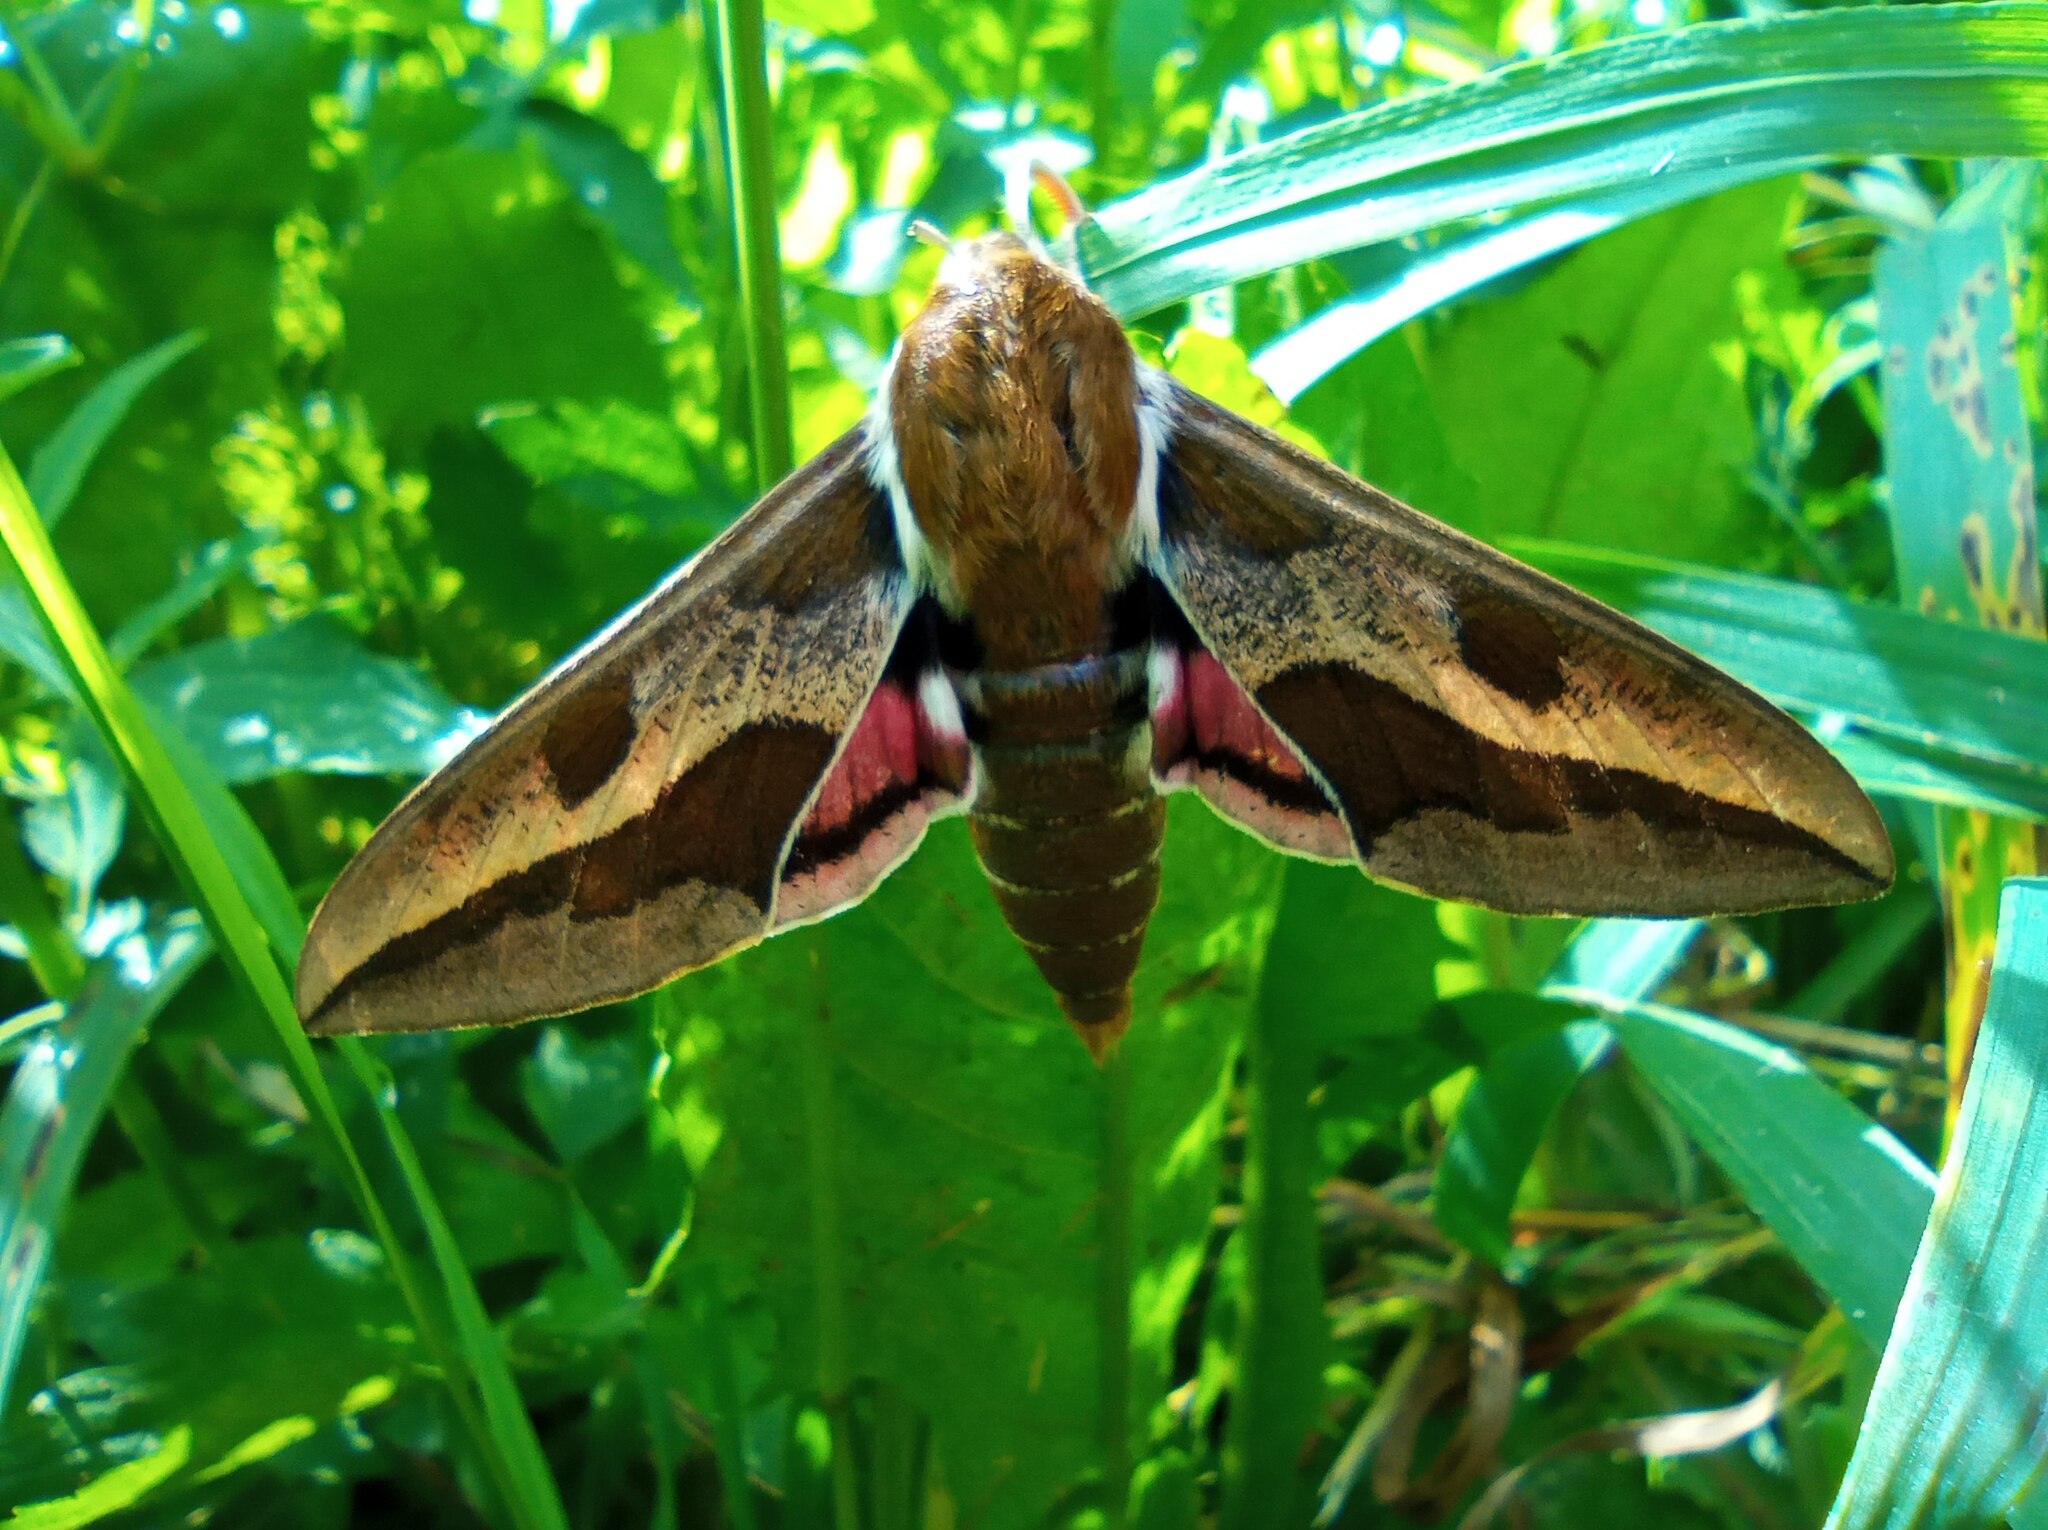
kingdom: Animalia
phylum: Arthropoda
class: Insecta
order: Lepidoptera
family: Sphingidae
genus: Hyles
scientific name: Hyles euphorbiae
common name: Spurge hawk-moth
